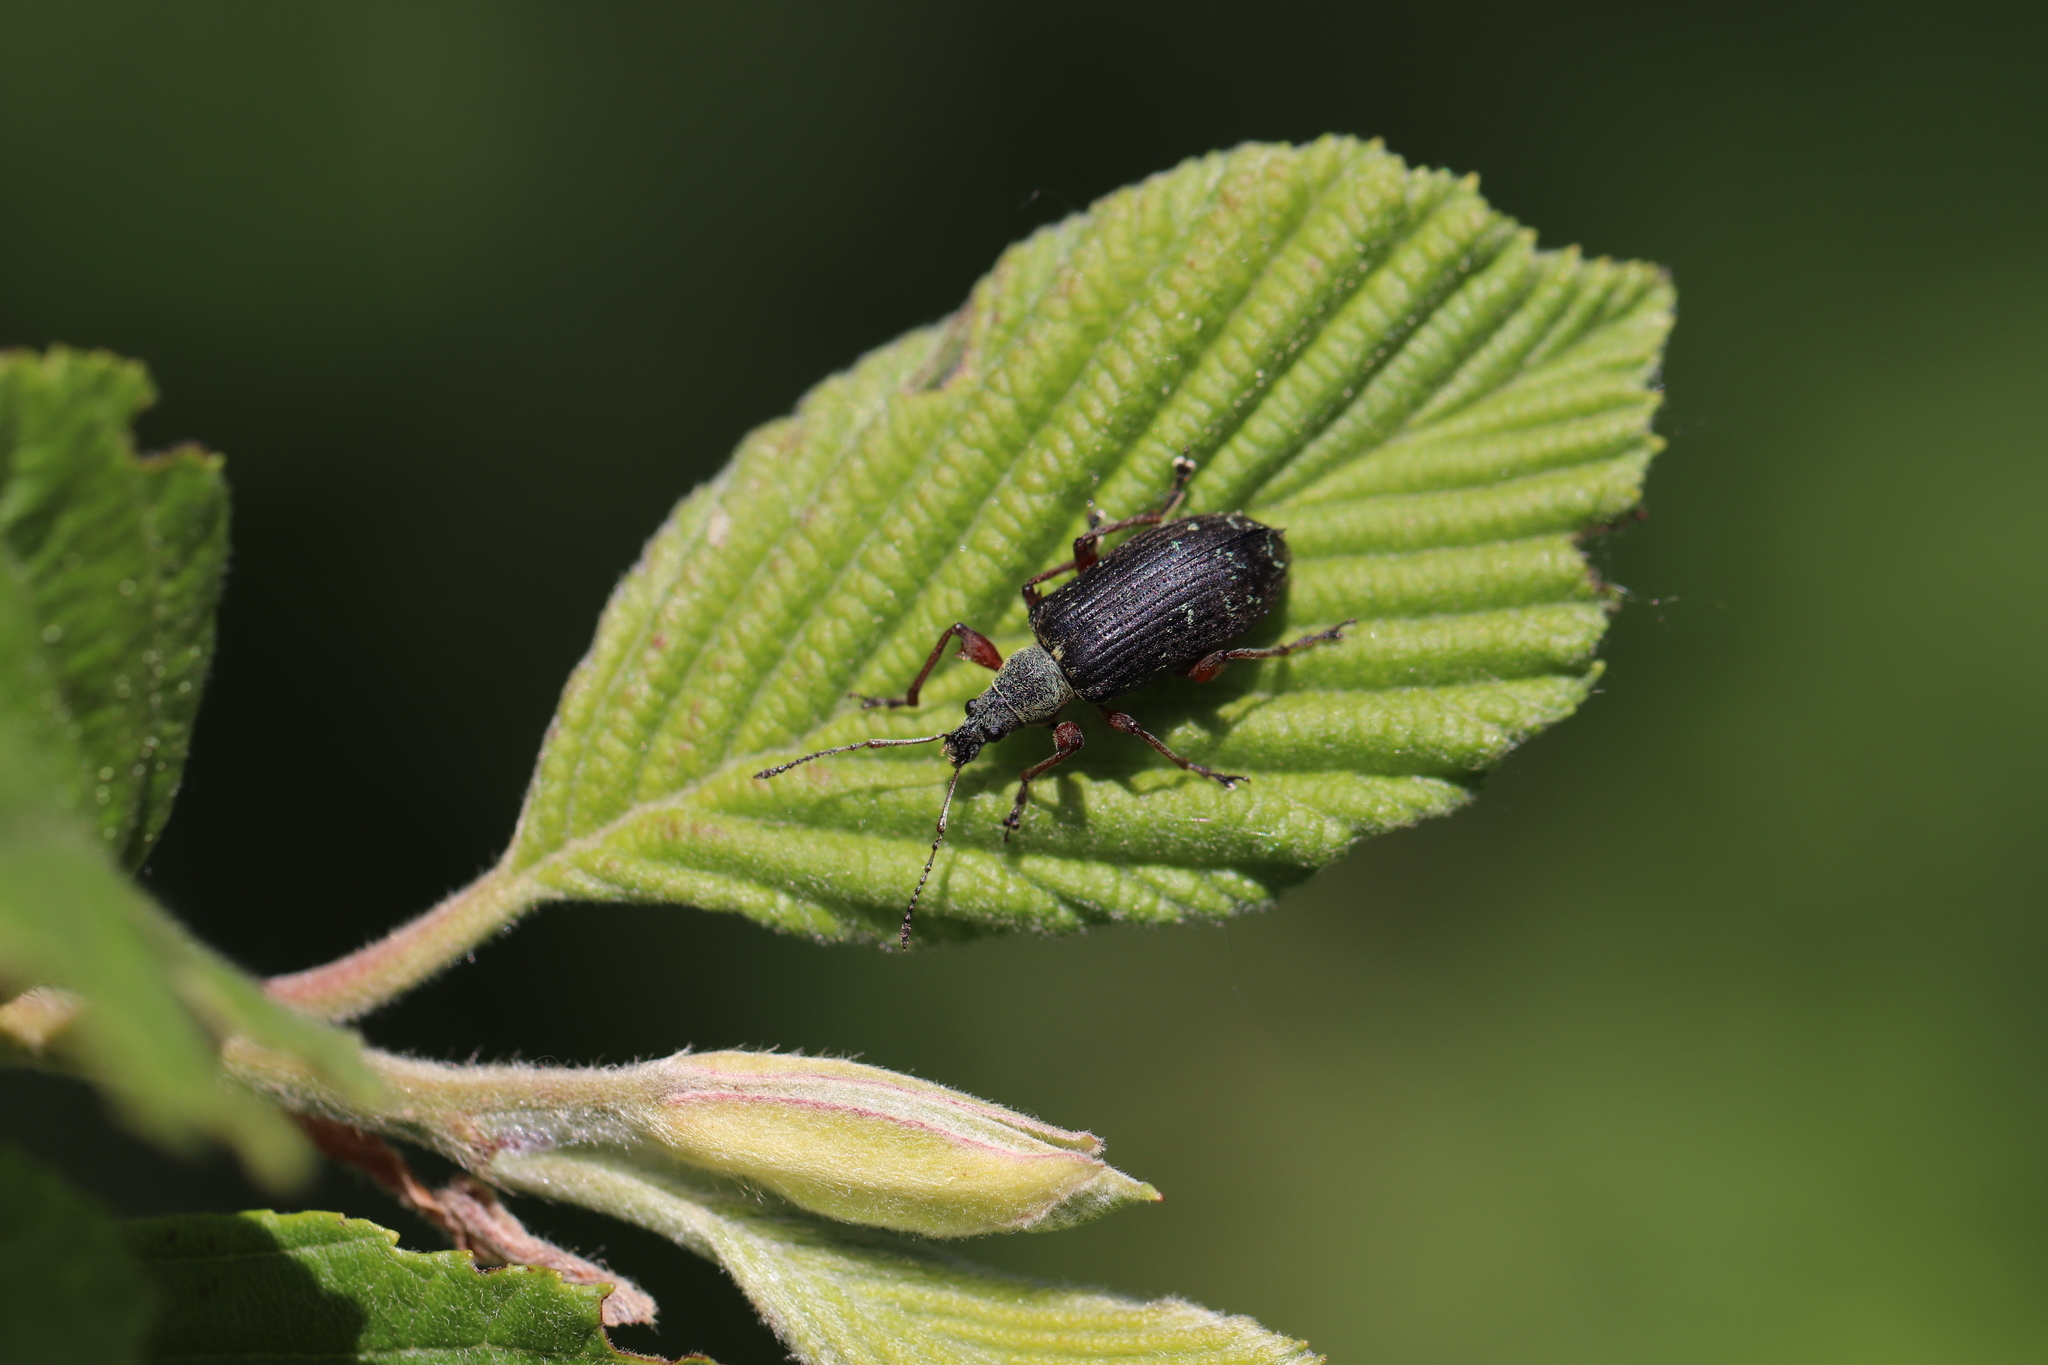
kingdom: Animalia
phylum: Arthropoda
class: Insecta
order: Coleoptera
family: Curculionidae
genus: Phyllobius
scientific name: Phyllobius glaucus
